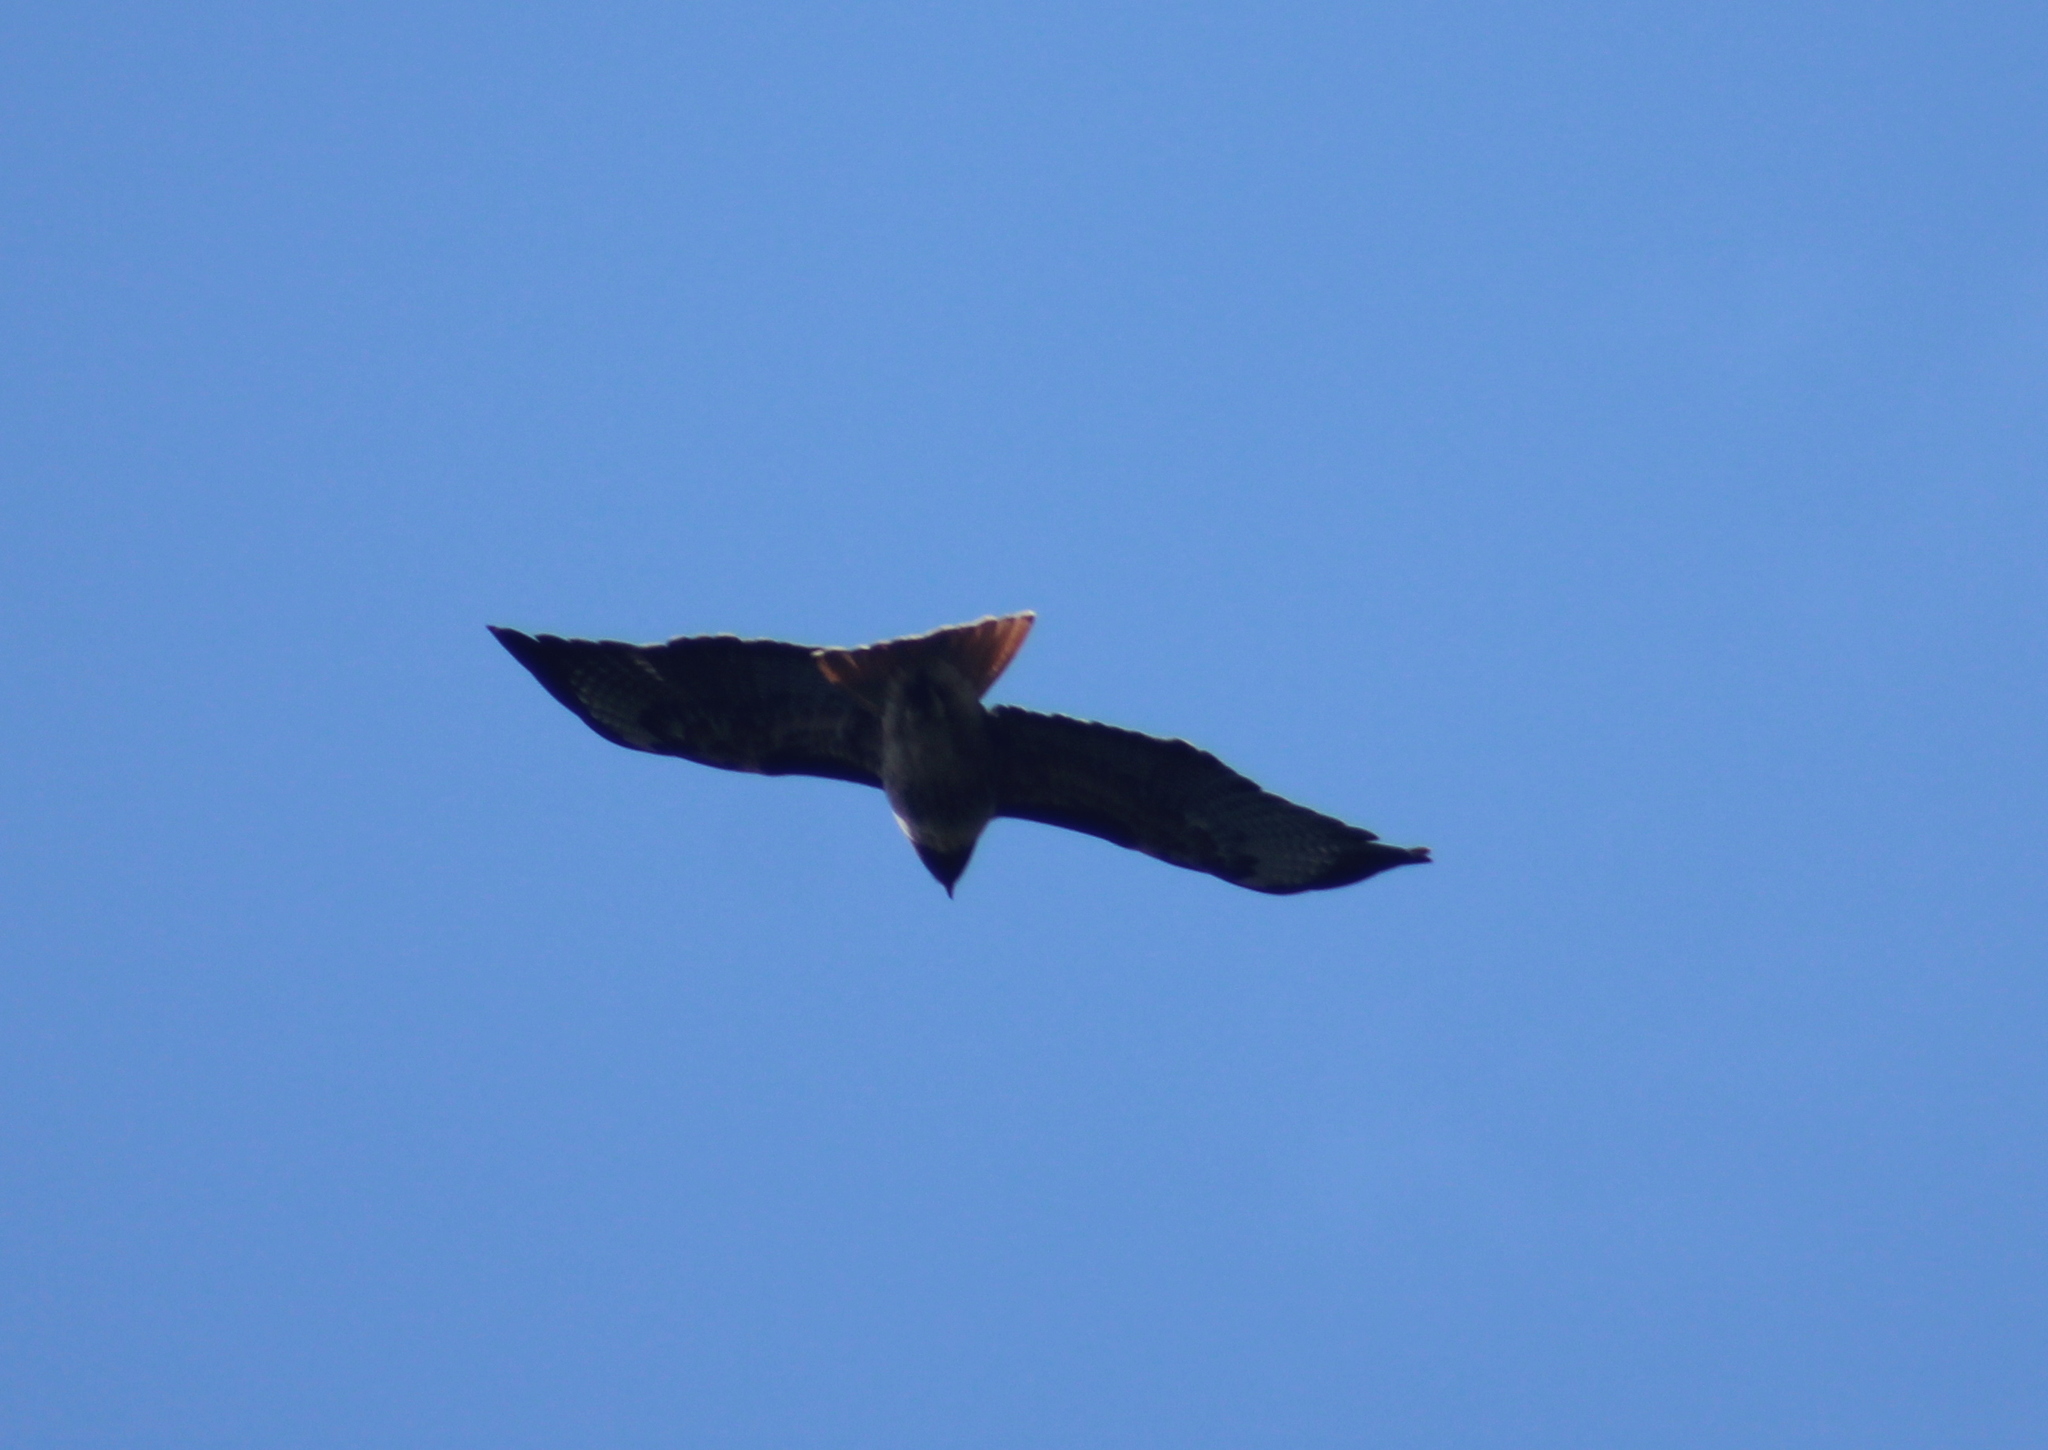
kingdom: Animalia
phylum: Chordata
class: Aves
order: Accipitriformes
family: Accipitridae
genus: Buteo
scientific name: Buteo jamaicensis
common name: Red-tailed hawk
